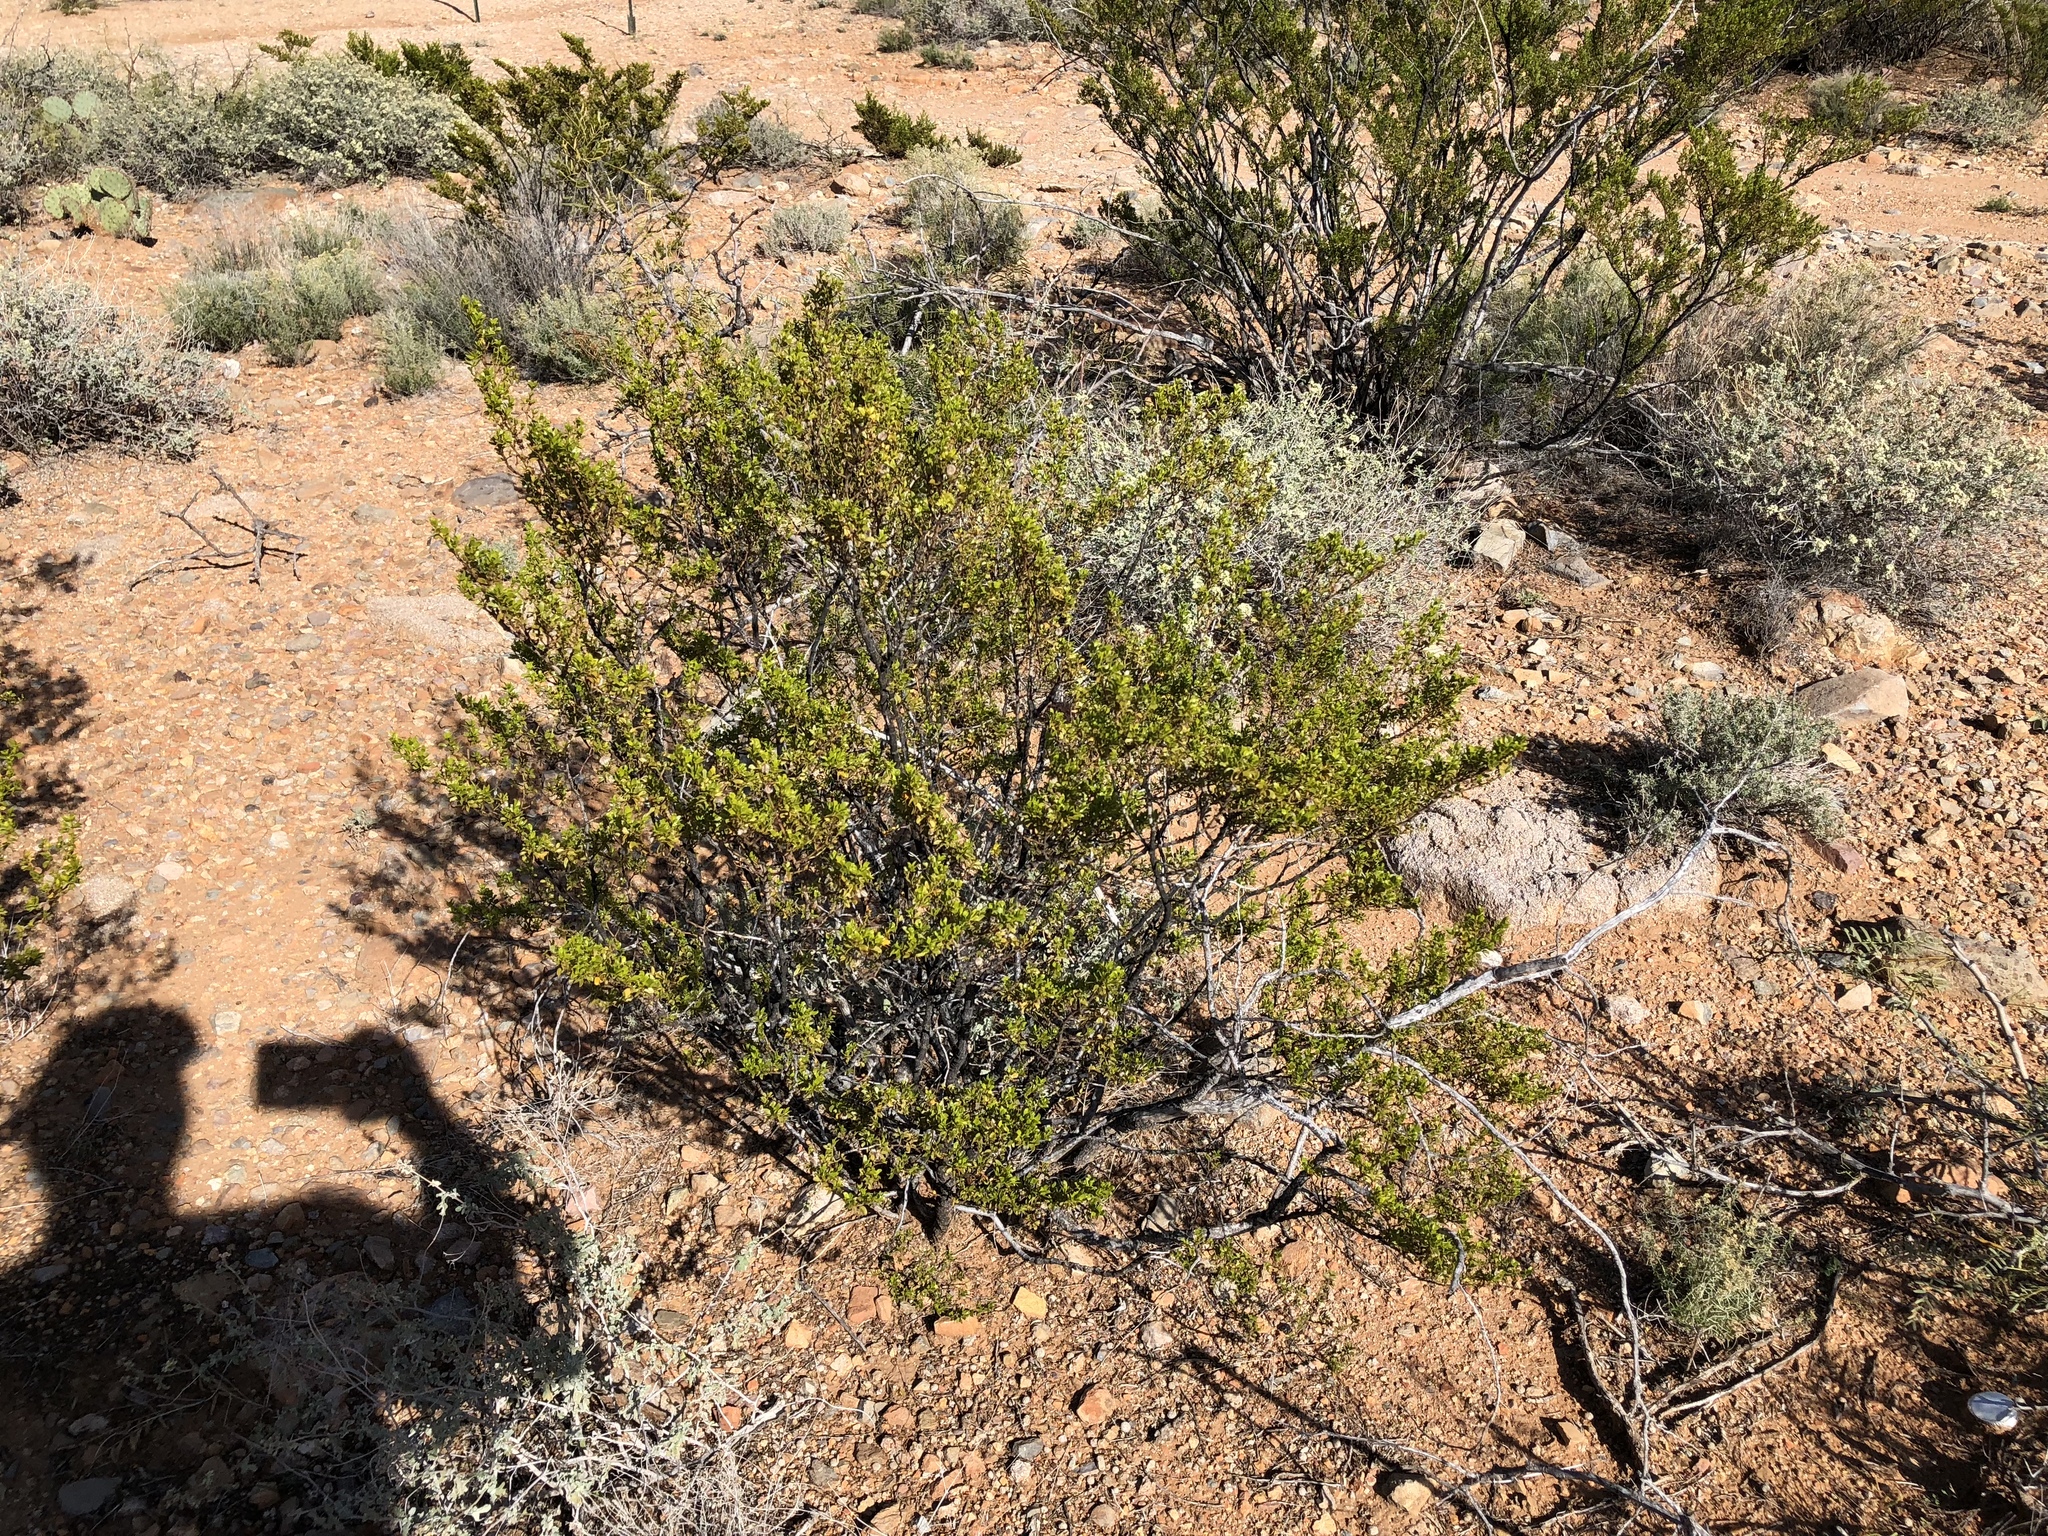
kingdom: Plantae
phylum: Tracheophyta
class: Magnoliopsida
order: Zygophyllales
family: Zygophyllaceae
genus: Larrea
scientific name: Larrea tridentata
